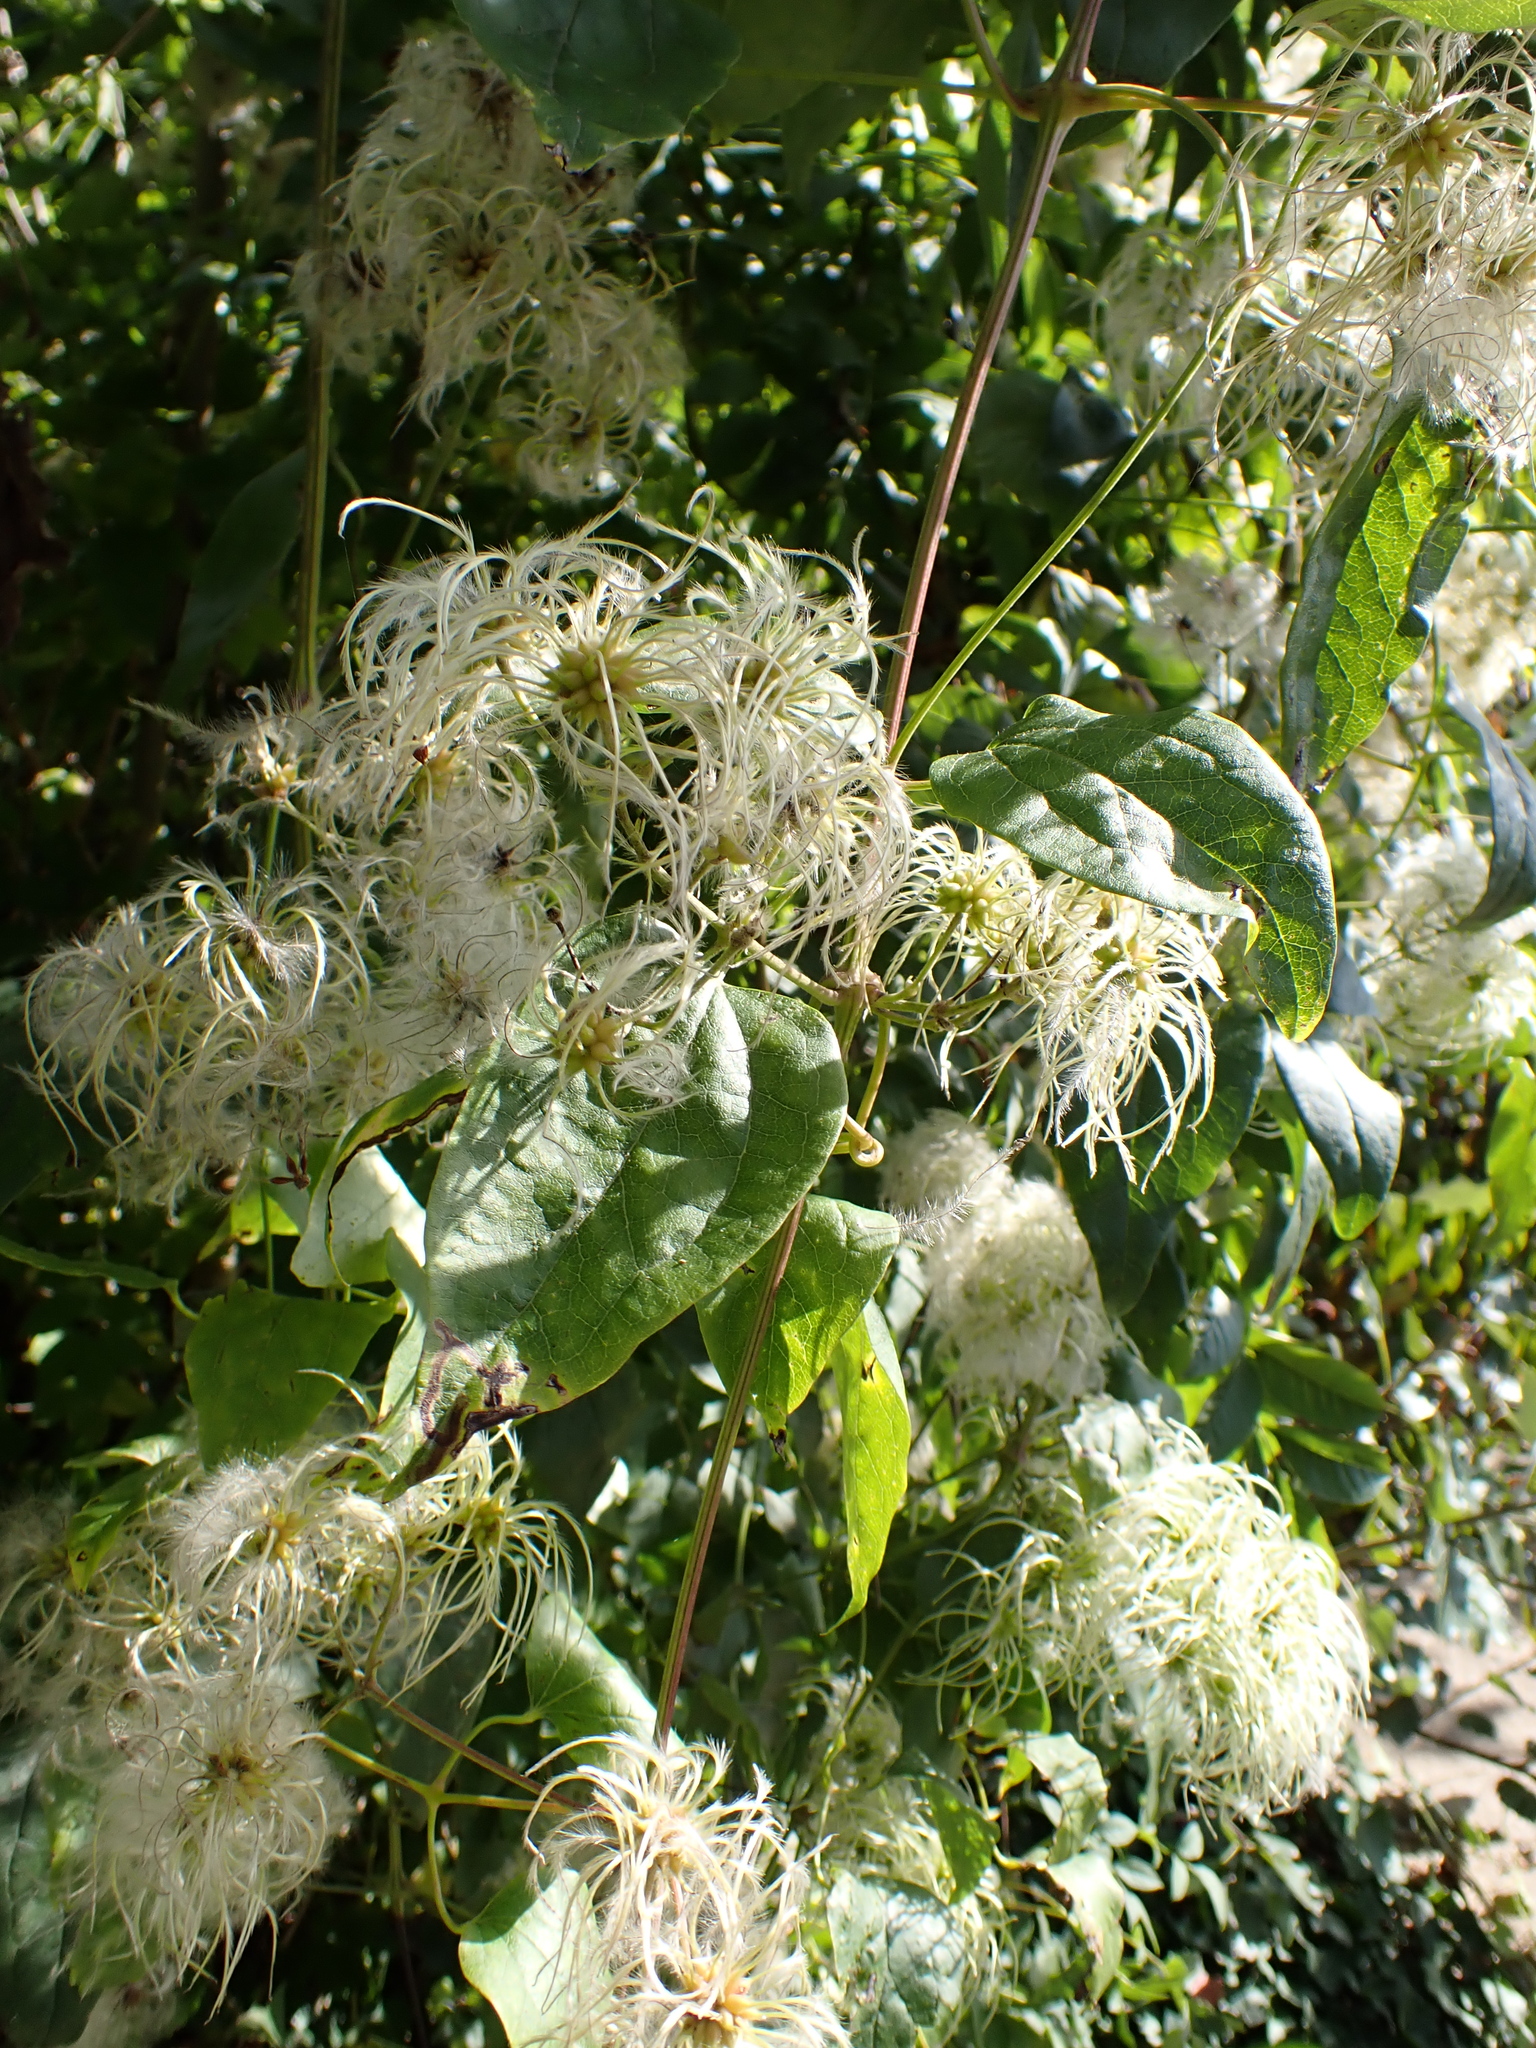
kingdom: Plantae
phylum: Tracheophyta
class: Magnoliopsida
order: Ranunculales
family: Ranunculaceae
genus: Clematis
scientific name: Clematis vitalba
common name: Evergreen clematis
